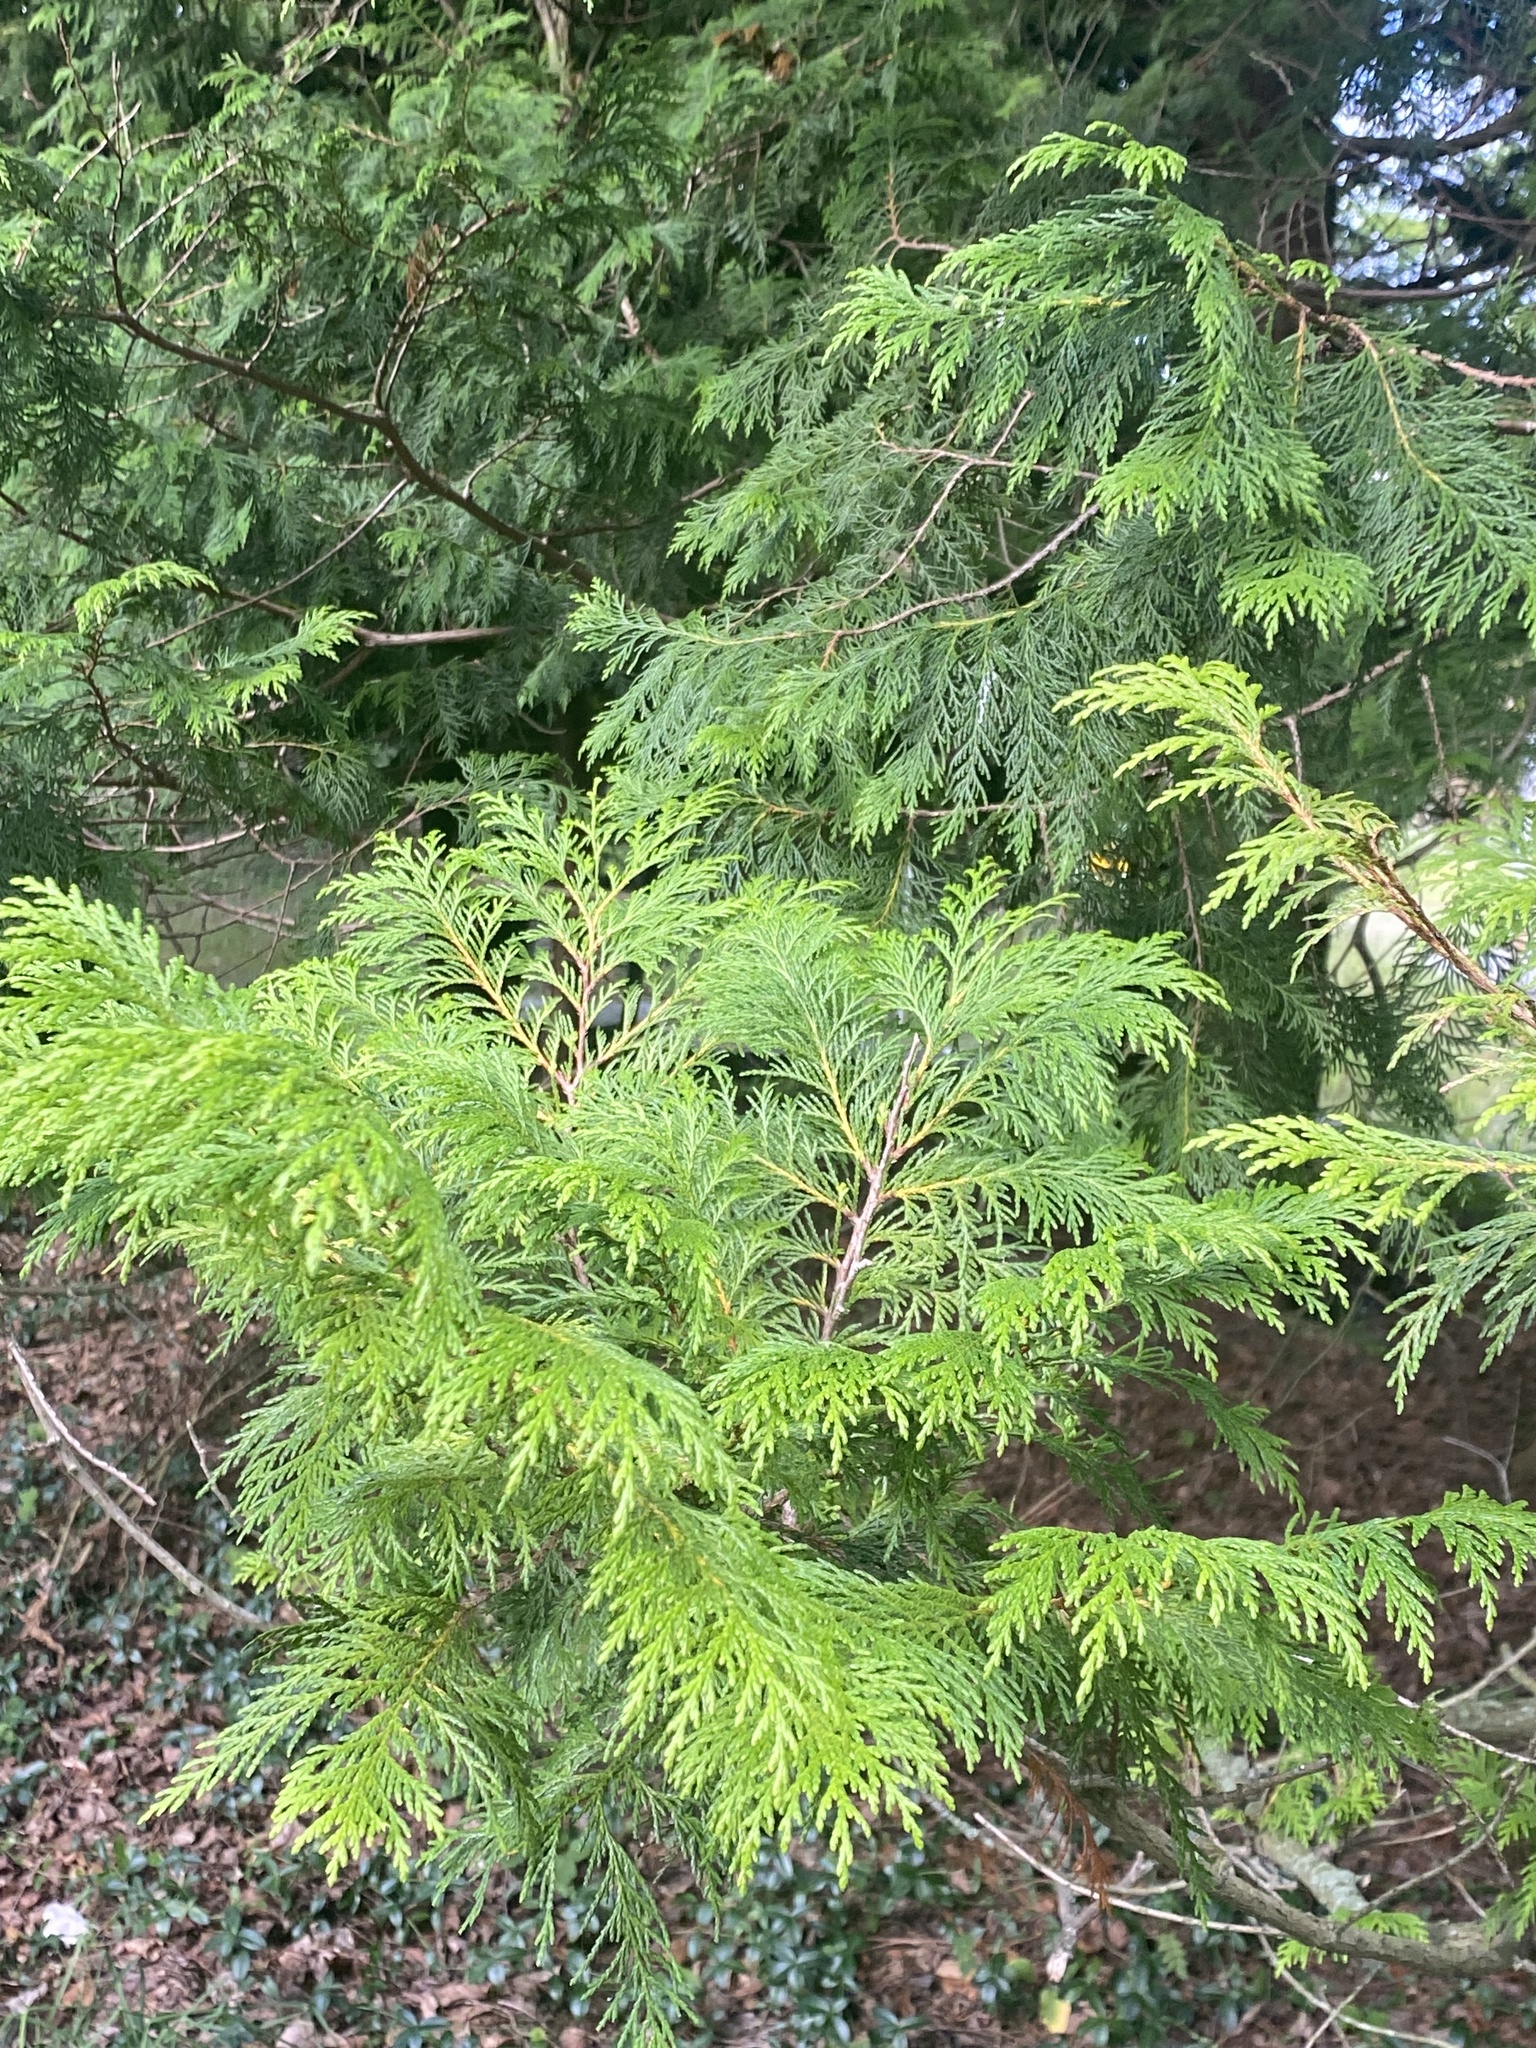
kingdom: Plantae
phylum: Tracheophyta
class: Pinopsida
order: Pinales
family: Cupressaceae
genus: Thuja
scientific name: Thuja occidentalis
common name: Northern white-cedar
